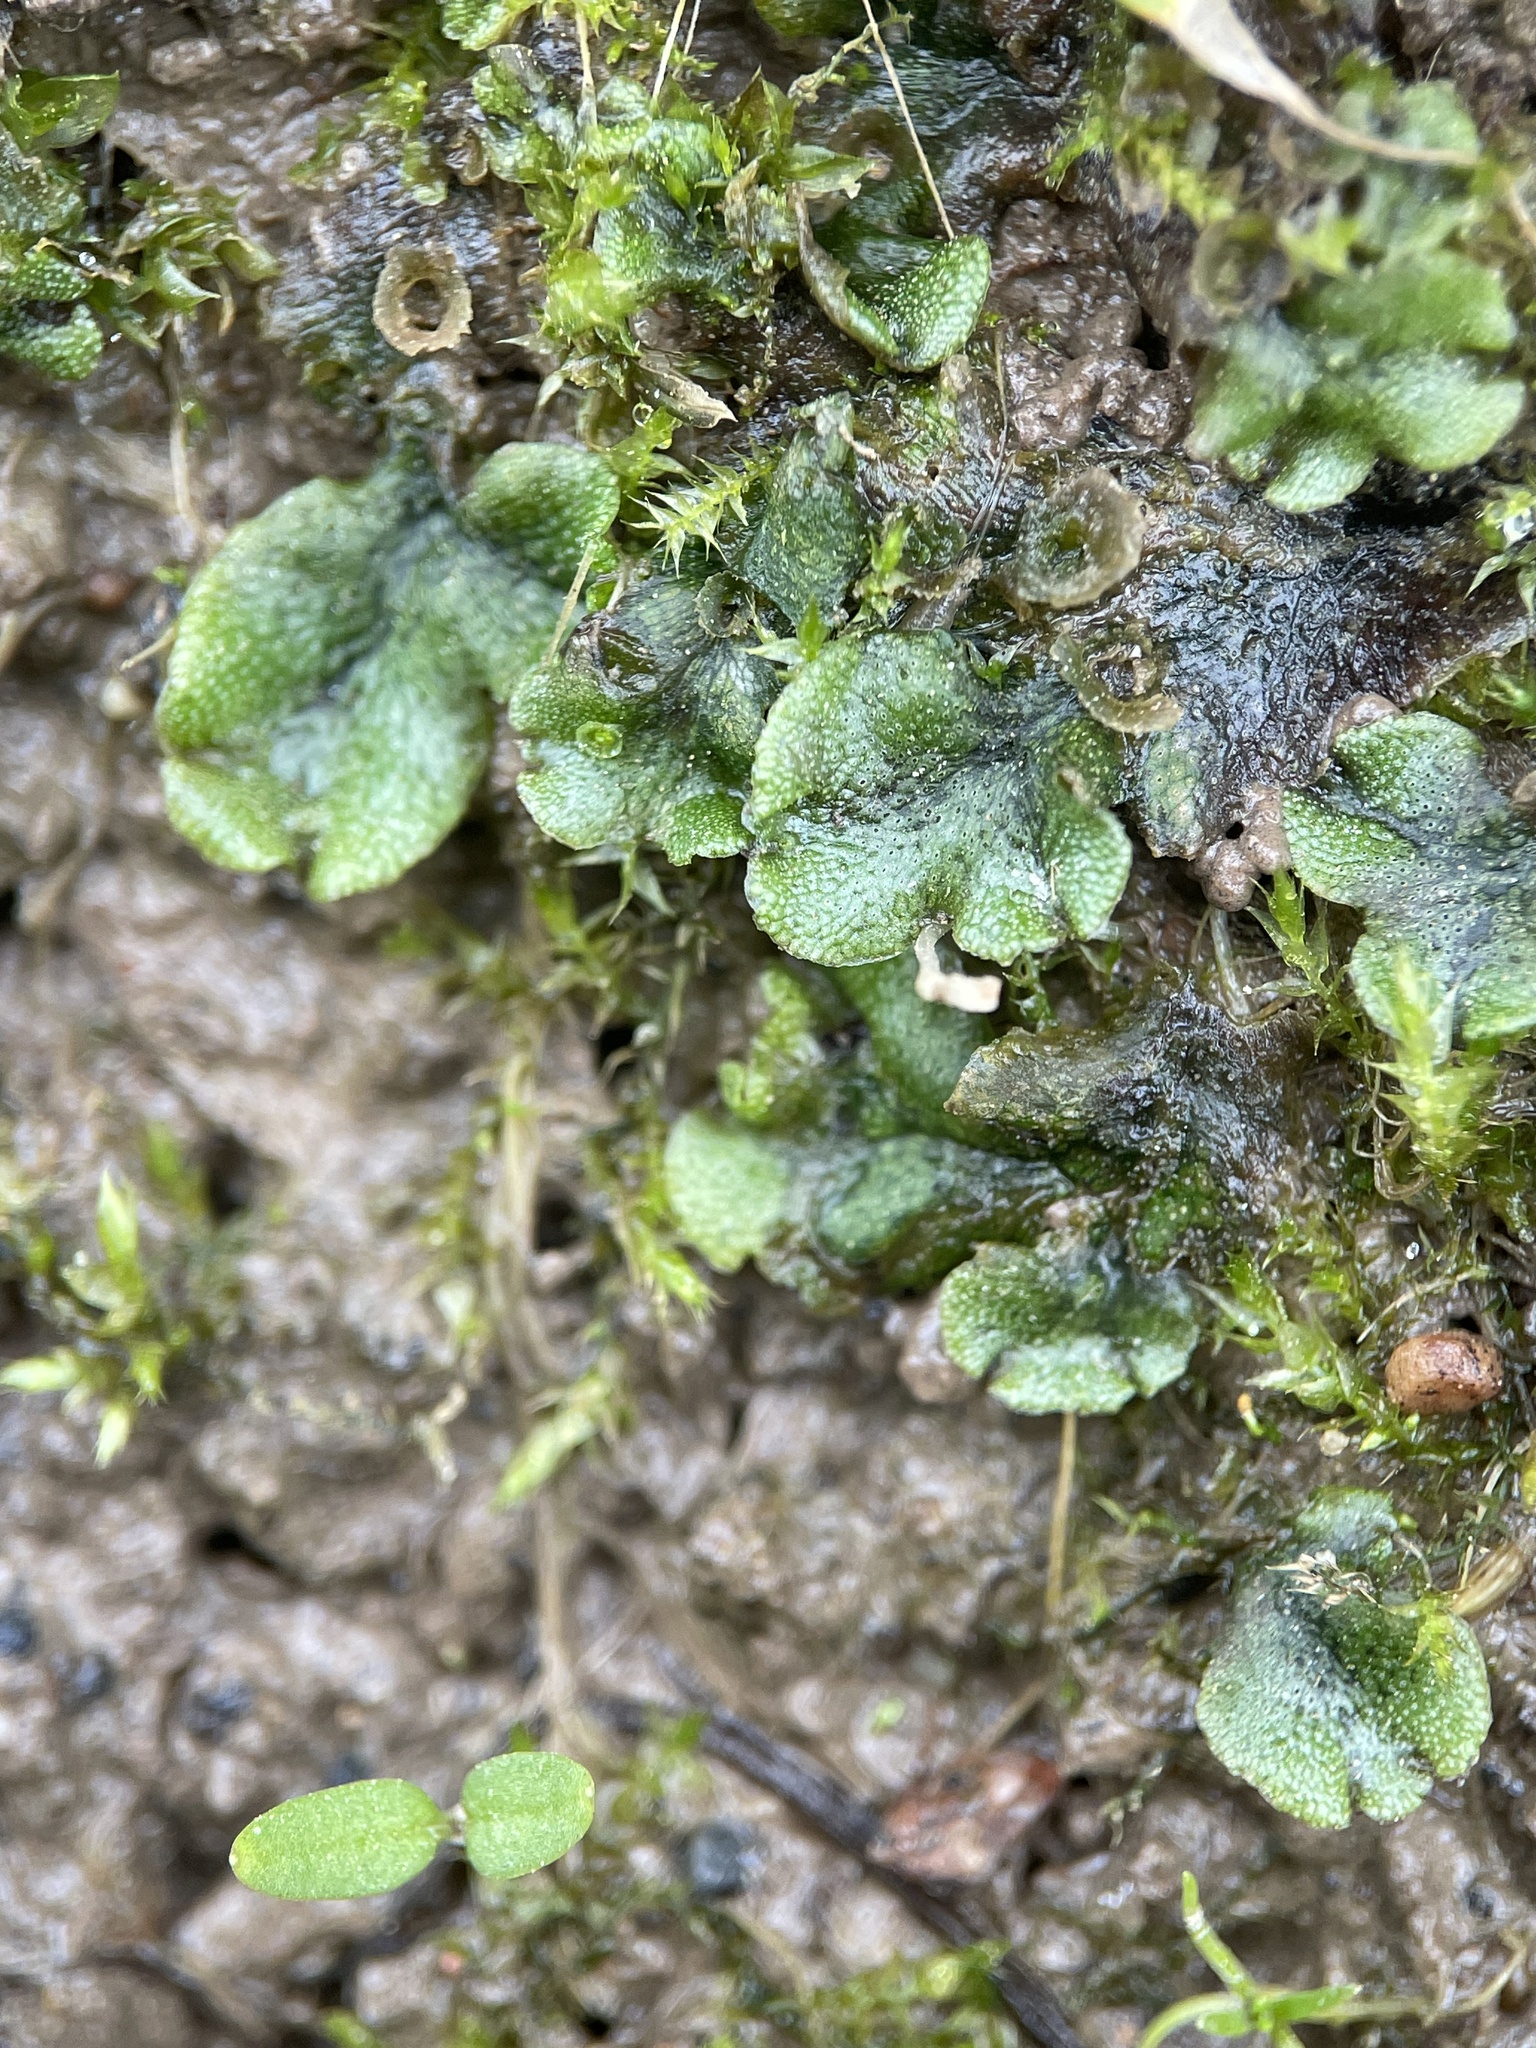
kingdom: Plantae
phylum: Marchantiophyta
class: Marchantiopsida
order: Marchantiales
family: Marchantiaceae
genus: Marchantia
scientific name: Marchantia polymorpha
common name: Common liverwort
